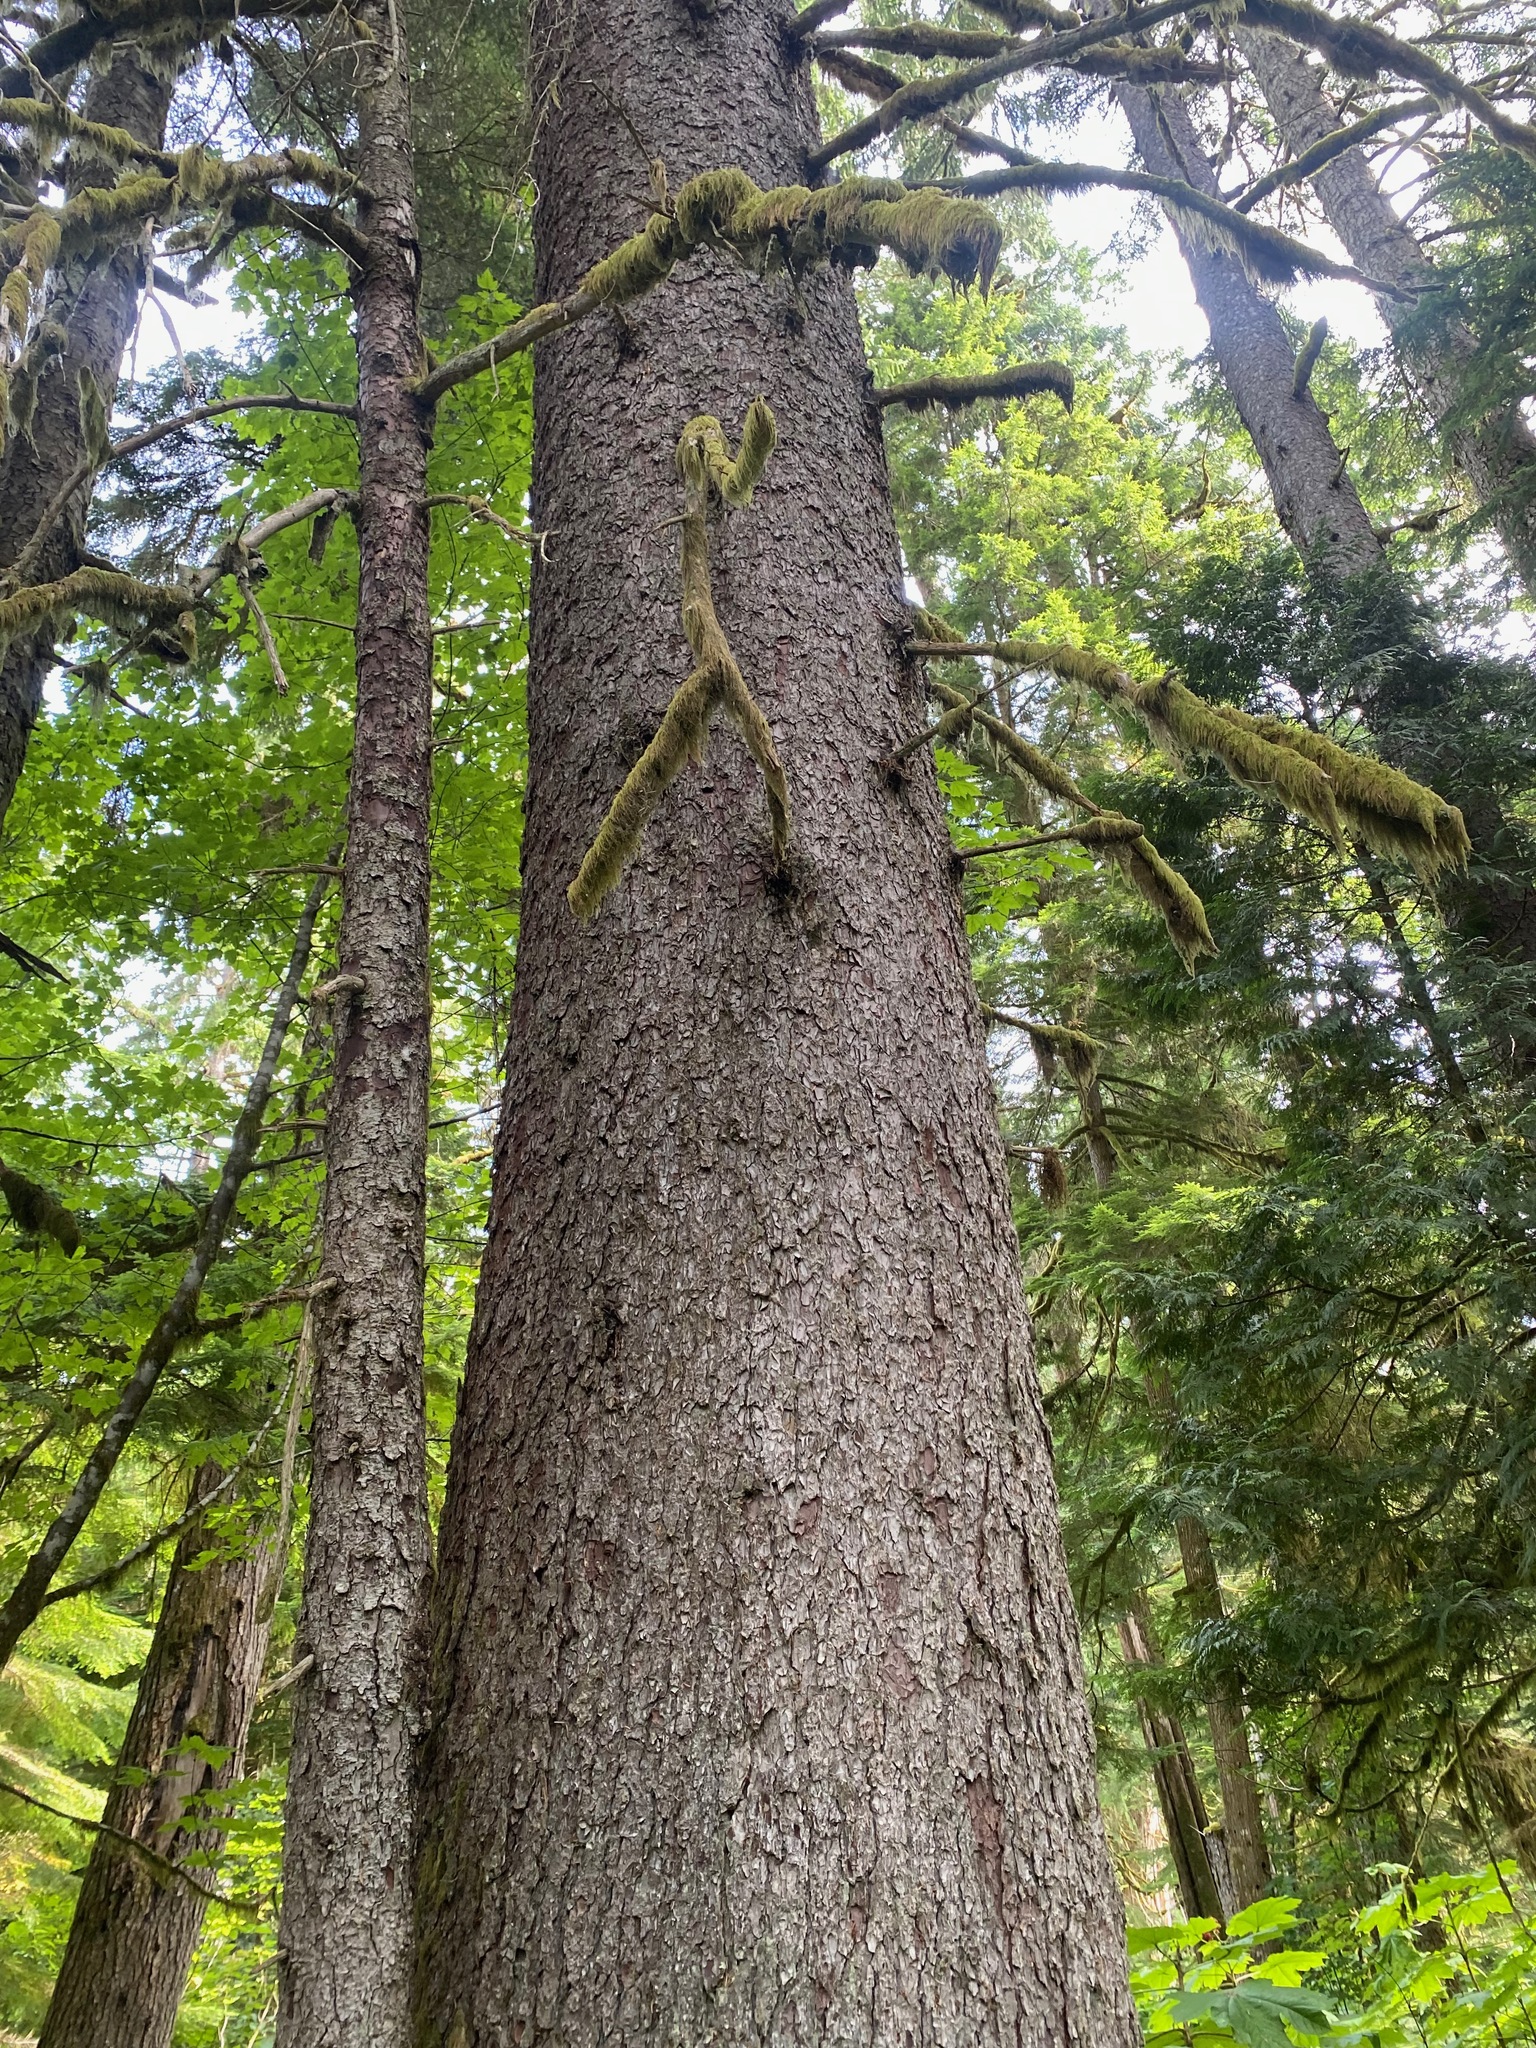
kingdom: Plantae
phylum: Tracheophyta
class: Pinopsida
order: Pinales
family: Pinaceae
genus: Picea
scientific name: Picea sitchensis
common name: Sitka spruce
